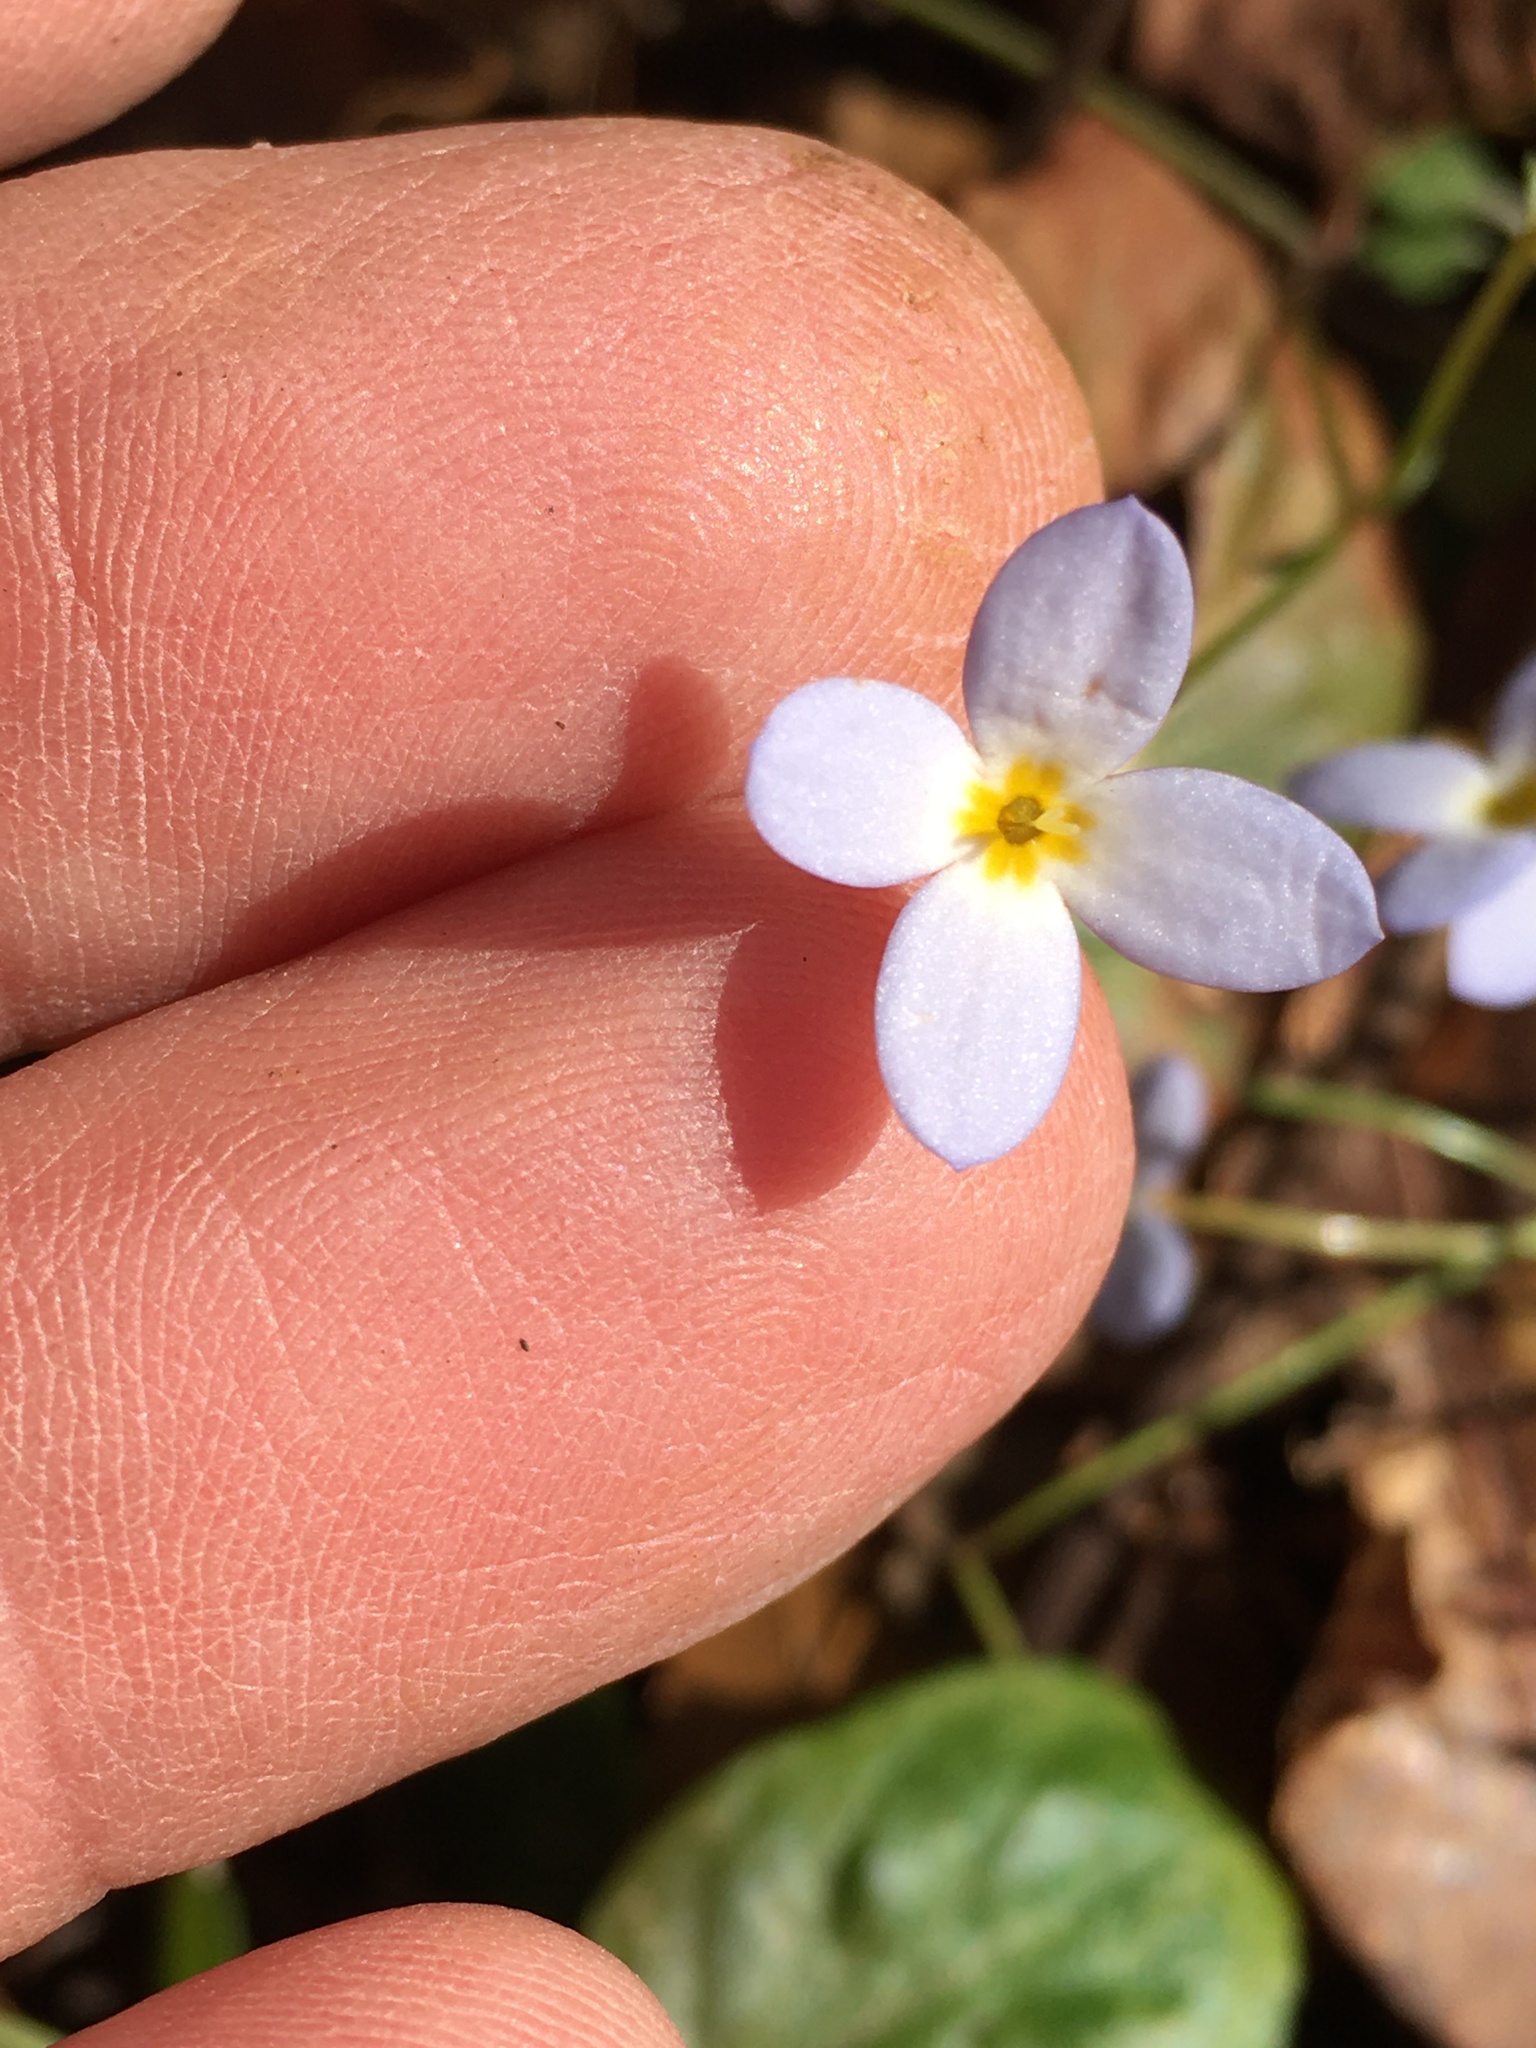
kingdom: Plantae
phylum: Tracheophyta
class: Magnoliopsida
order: Gentianales
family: Rubiaceae
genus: Houstonia
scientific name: Houstonia caerulea
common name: Bluets
